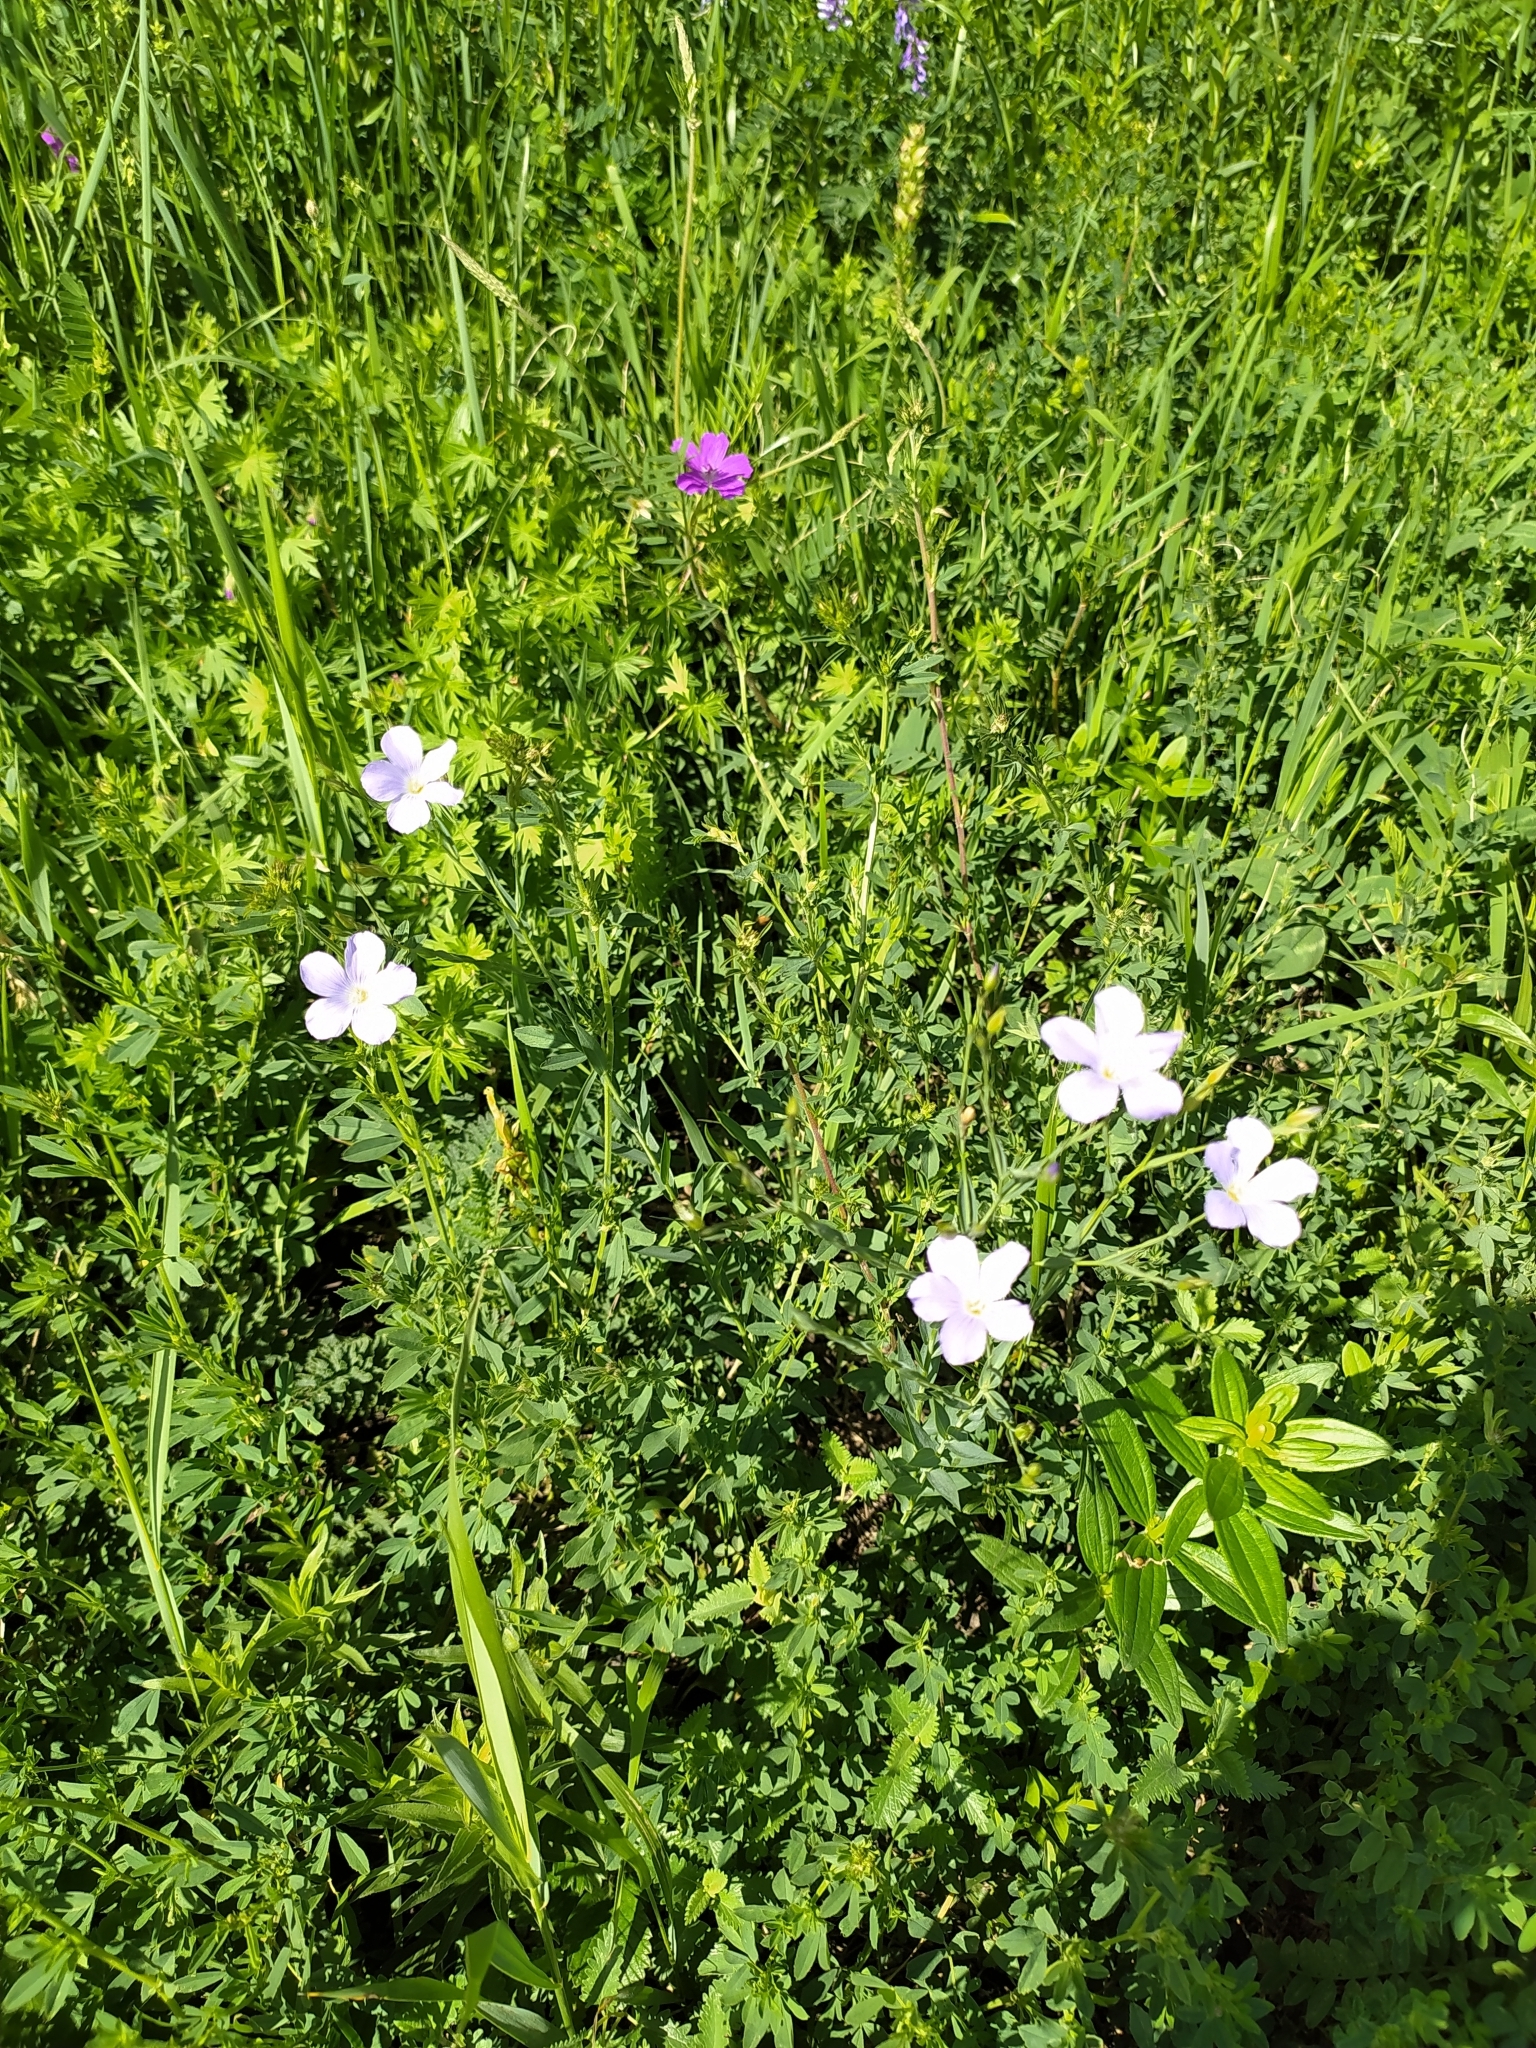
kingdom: Plantae
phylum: Tracheophyta
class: Magnoliopsida
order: Malpighiales
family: Linaceae
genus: Linum
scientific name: Linum usitatissimum
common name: Flax
